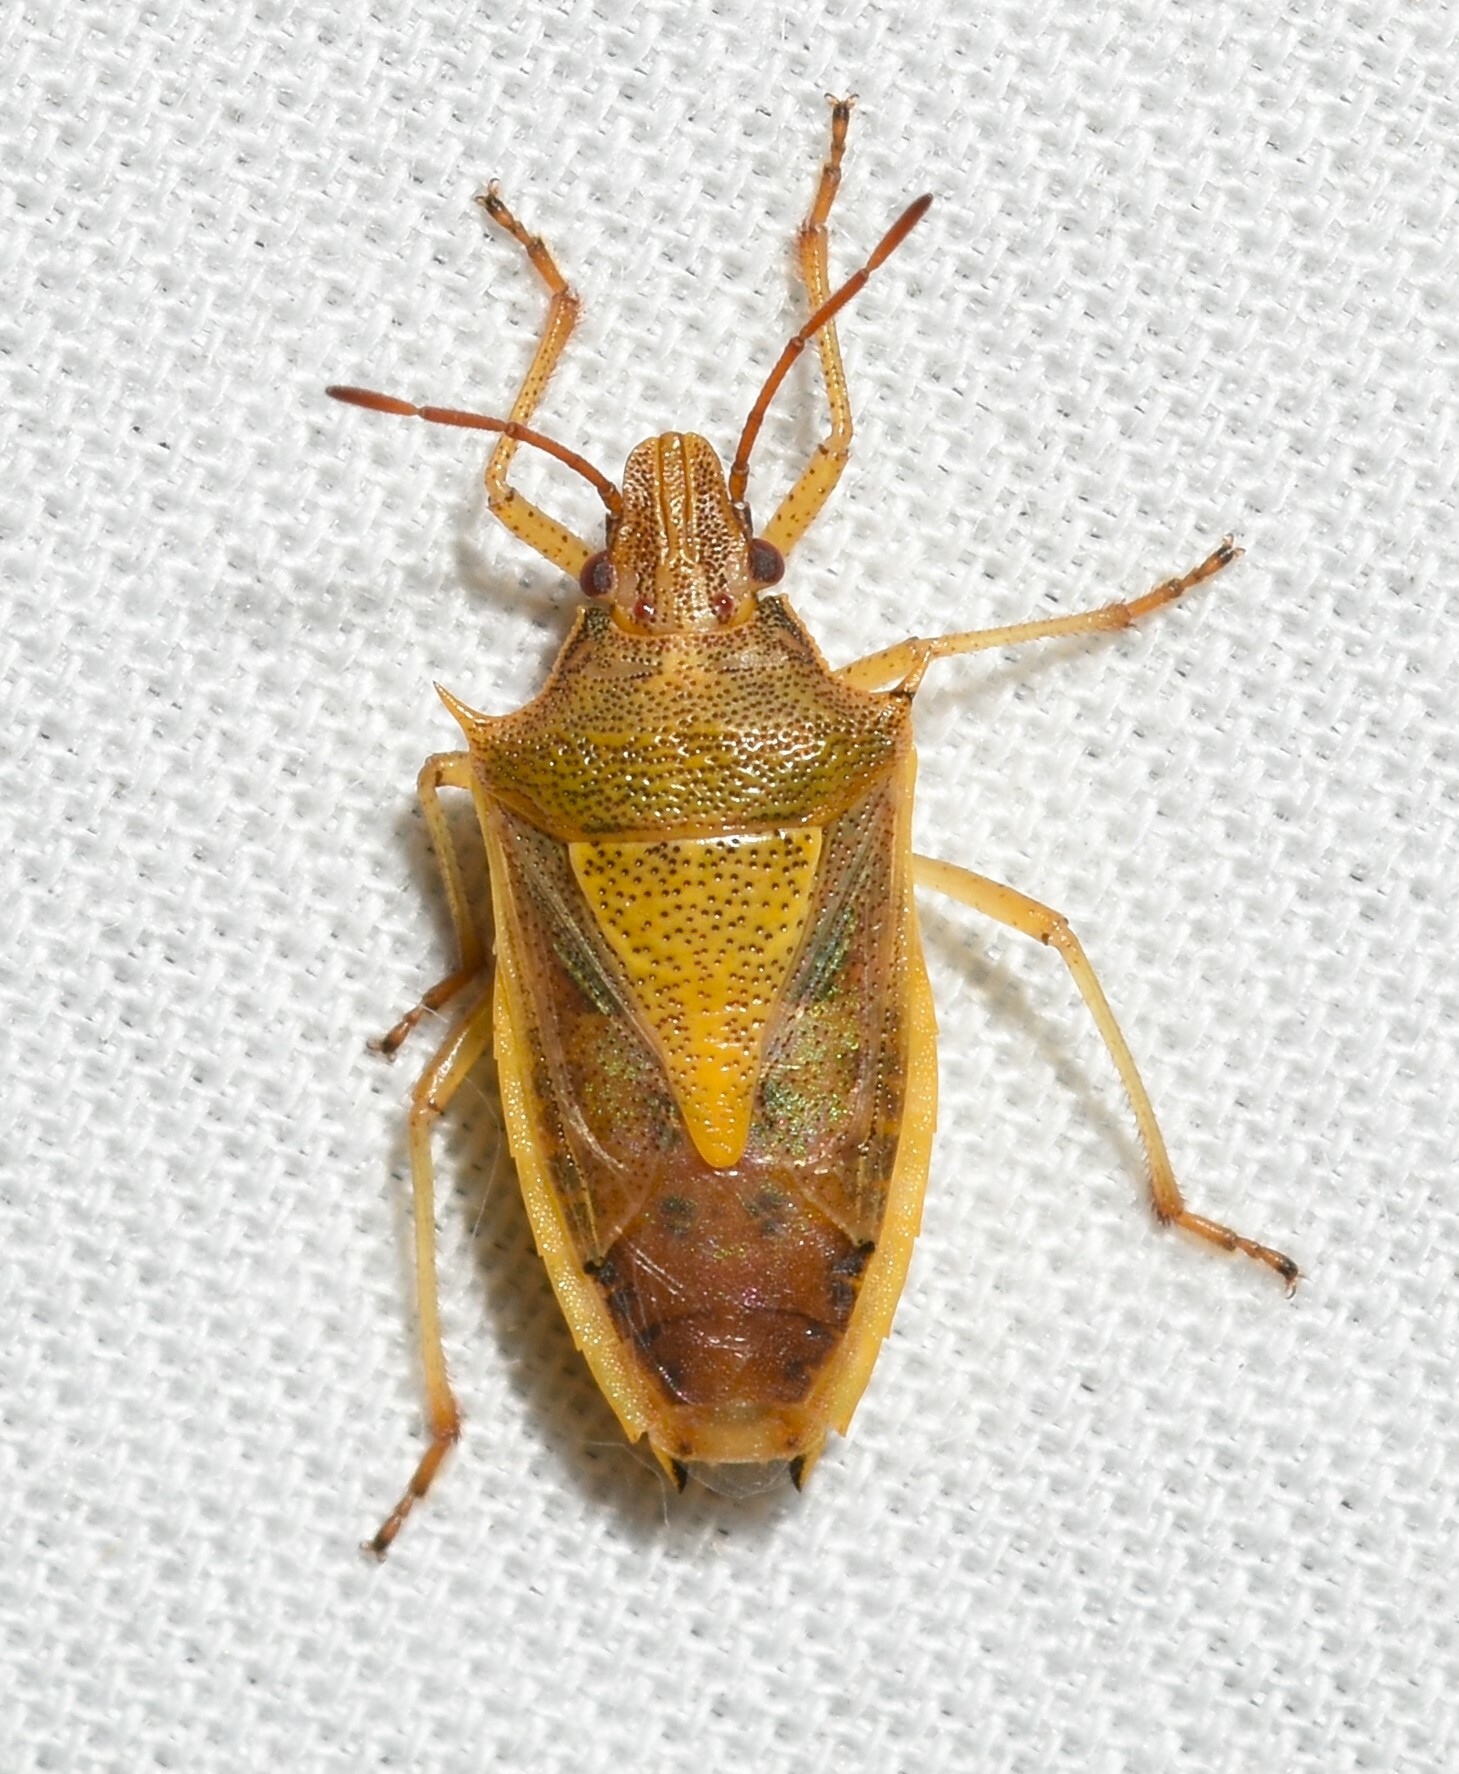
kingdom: Animalia
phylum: Arthropoda
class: Insecta
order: Hemiptera
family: Pentatomidae
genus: Oebalus
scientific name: Oebalus pugnax
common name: Rice stink bug
